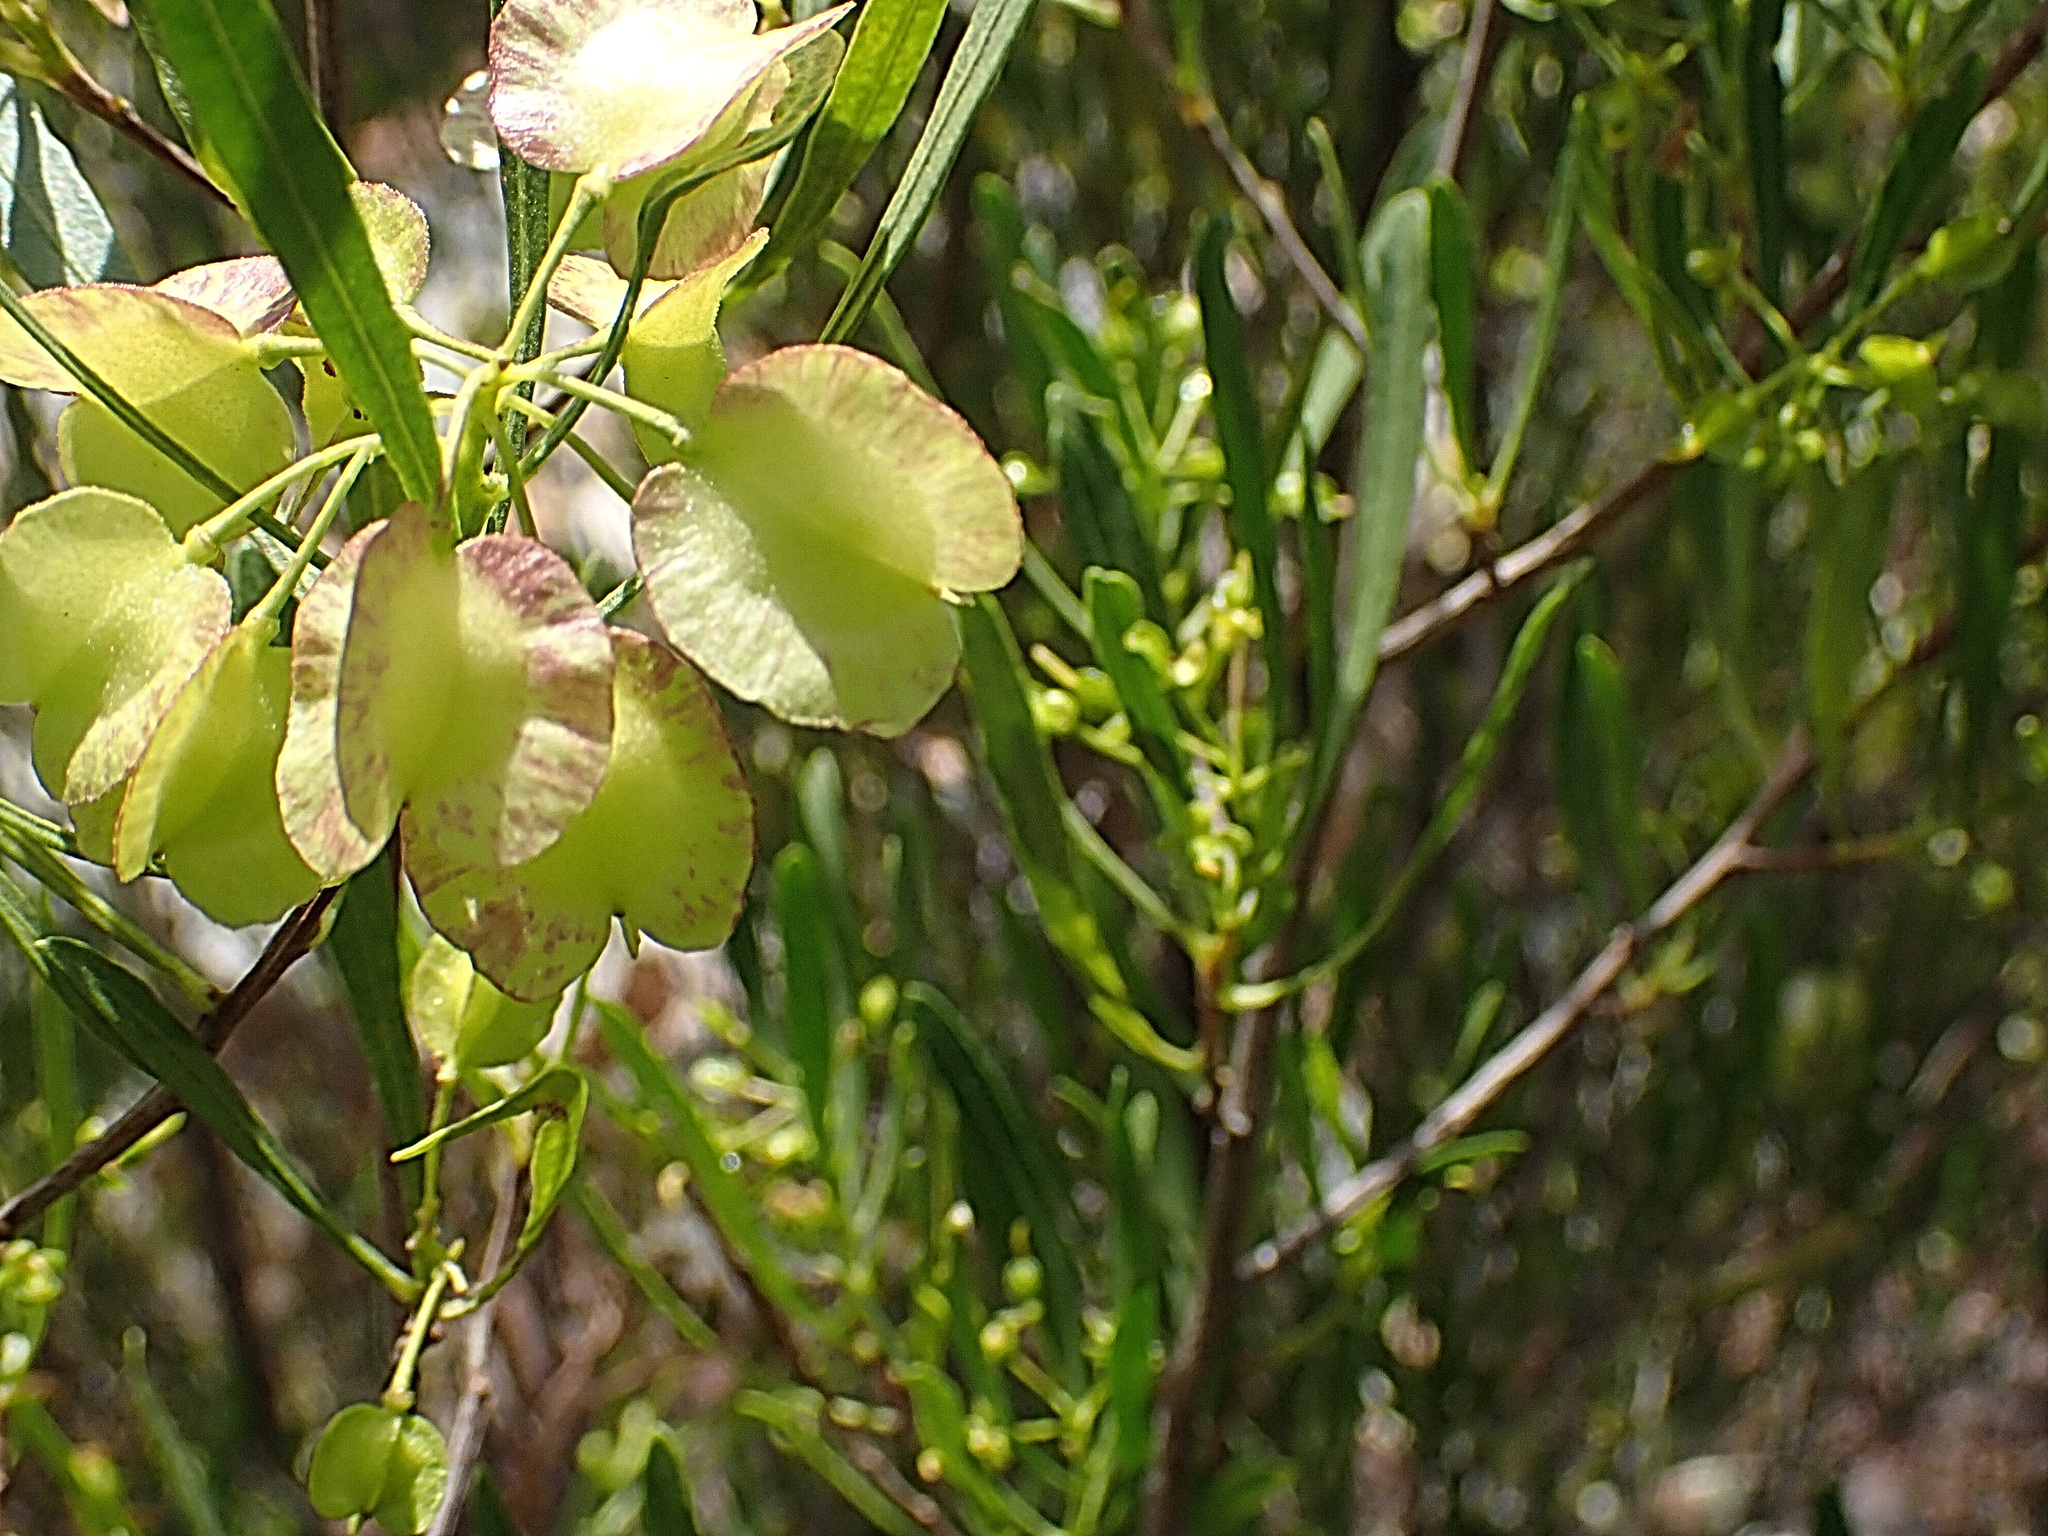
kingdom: Plantae
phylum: Tracheophyta
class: Magnoliopsida
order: Sapindales
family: Sapindaceae
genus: Dodonaea
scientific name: Dodonaea viscosa
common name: Hopbush
